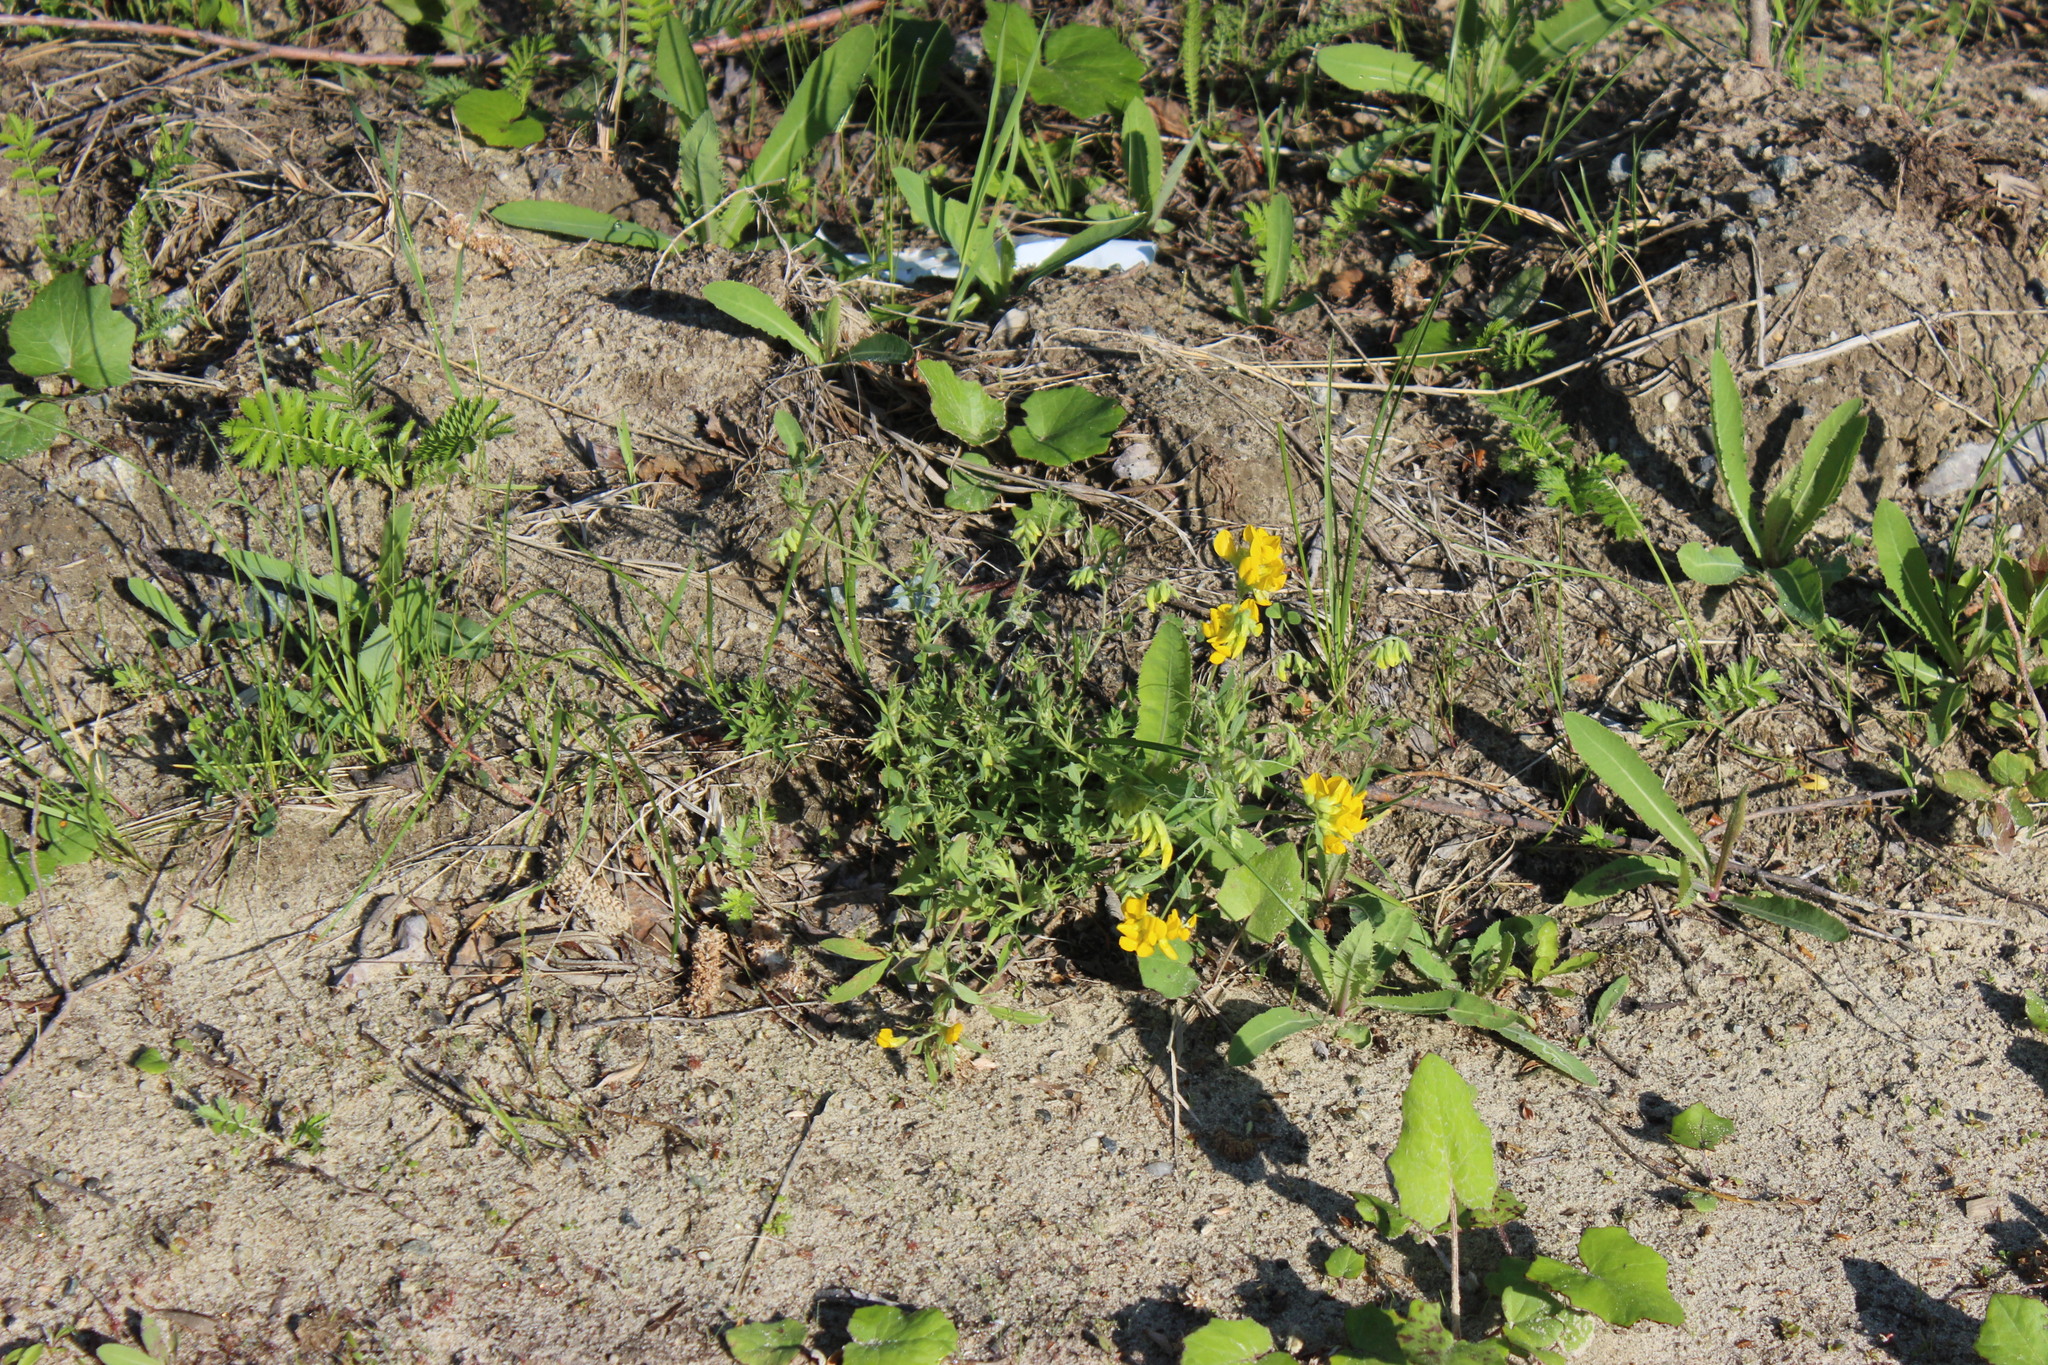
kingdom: Plantae
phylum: Tracheophyta
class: Magnoliopsida
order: Fabales
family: Fabaceae
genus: Lathyrus
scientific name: Lathyrus pratensis
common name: Meadow vetchling
